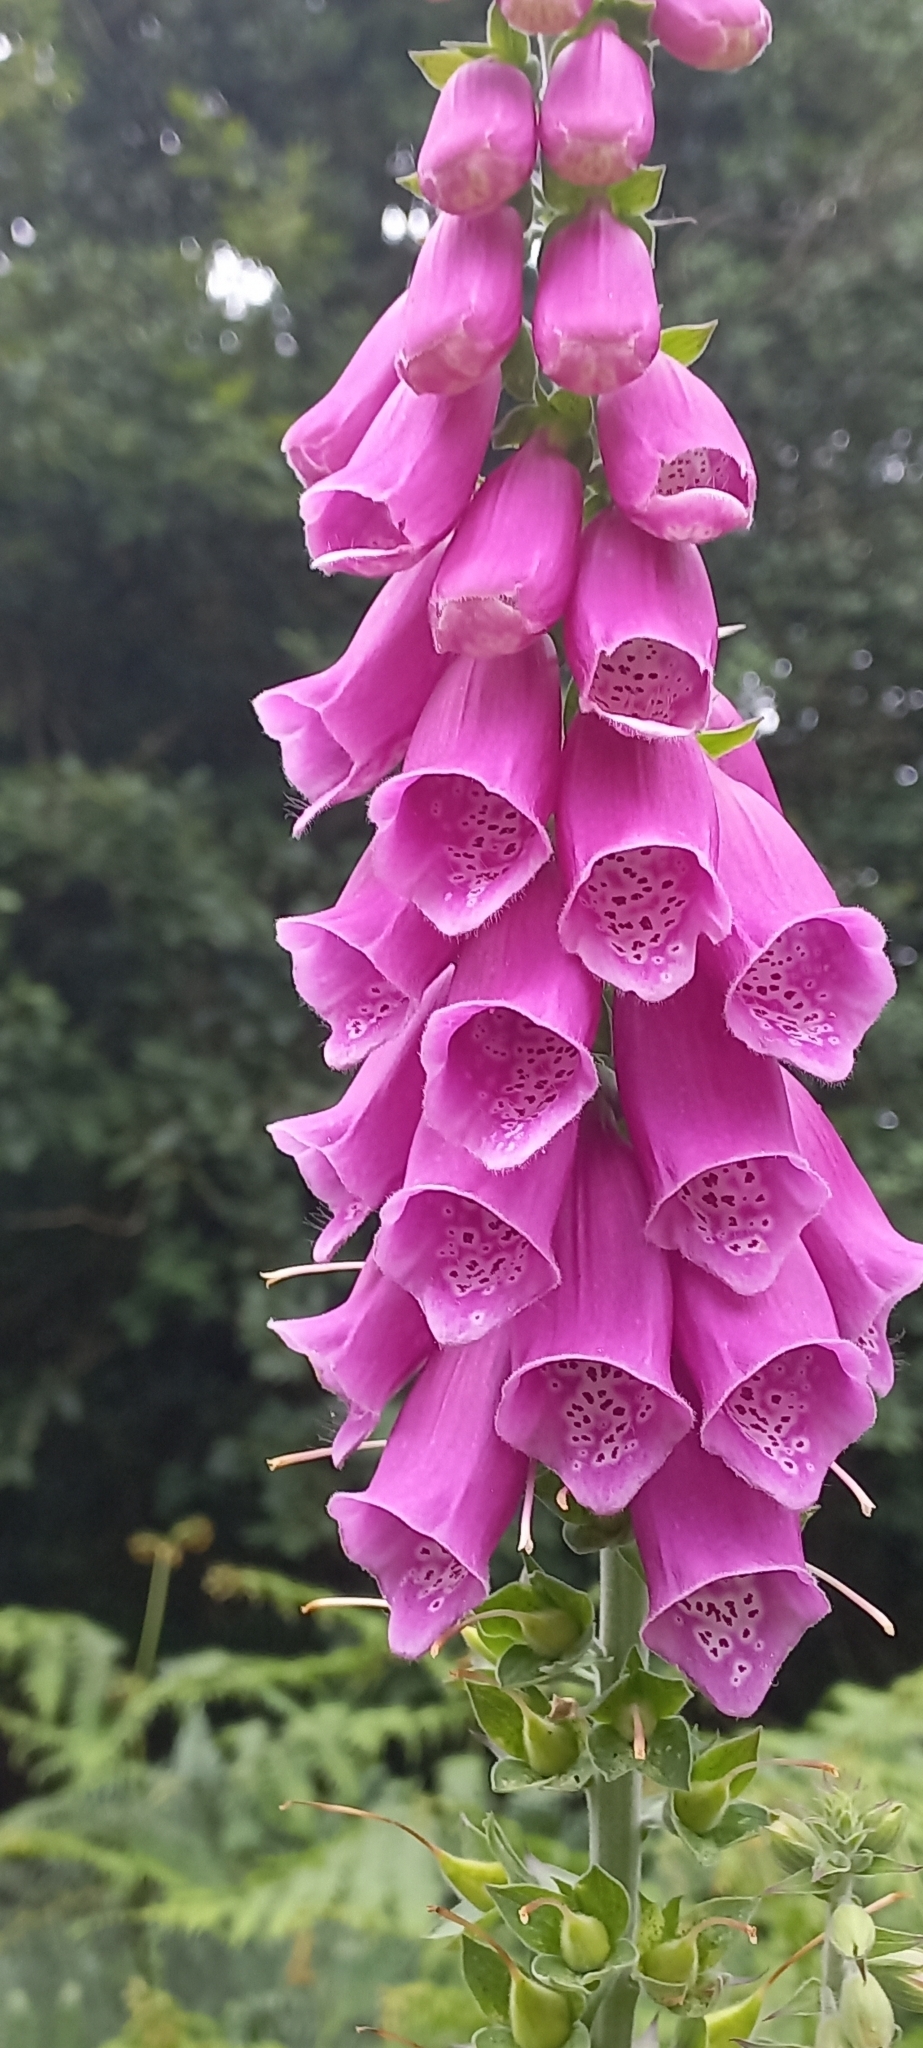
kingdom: Plantae
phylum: Tracheophyta
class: Magnoliopsida
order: Lamiales
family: Plantaginaceae
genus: Digitalis
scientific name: Digitalis purpurea
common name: Foxglove
